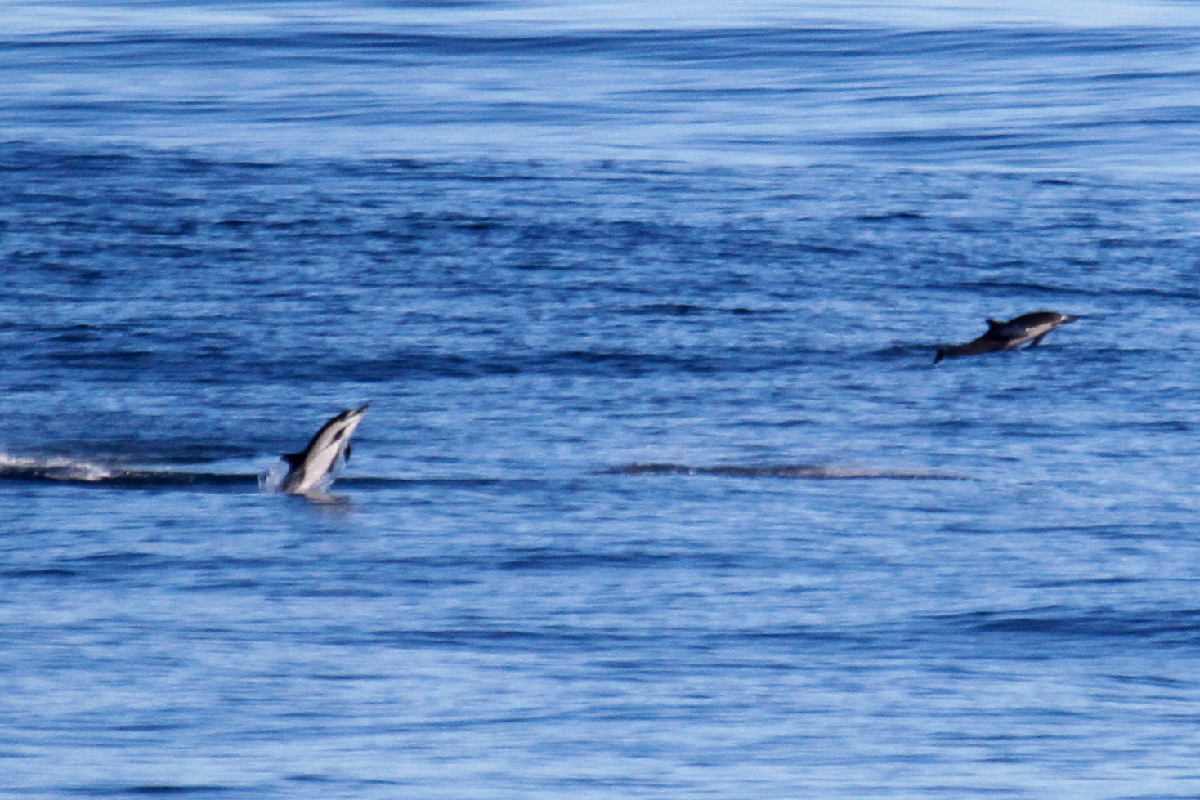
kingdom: Animalia
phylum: Chordata
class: Mammalia
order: Cetacea
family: Delphinidae
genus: Delphinus
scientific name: Delphinus delphis
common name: Common dolphin
